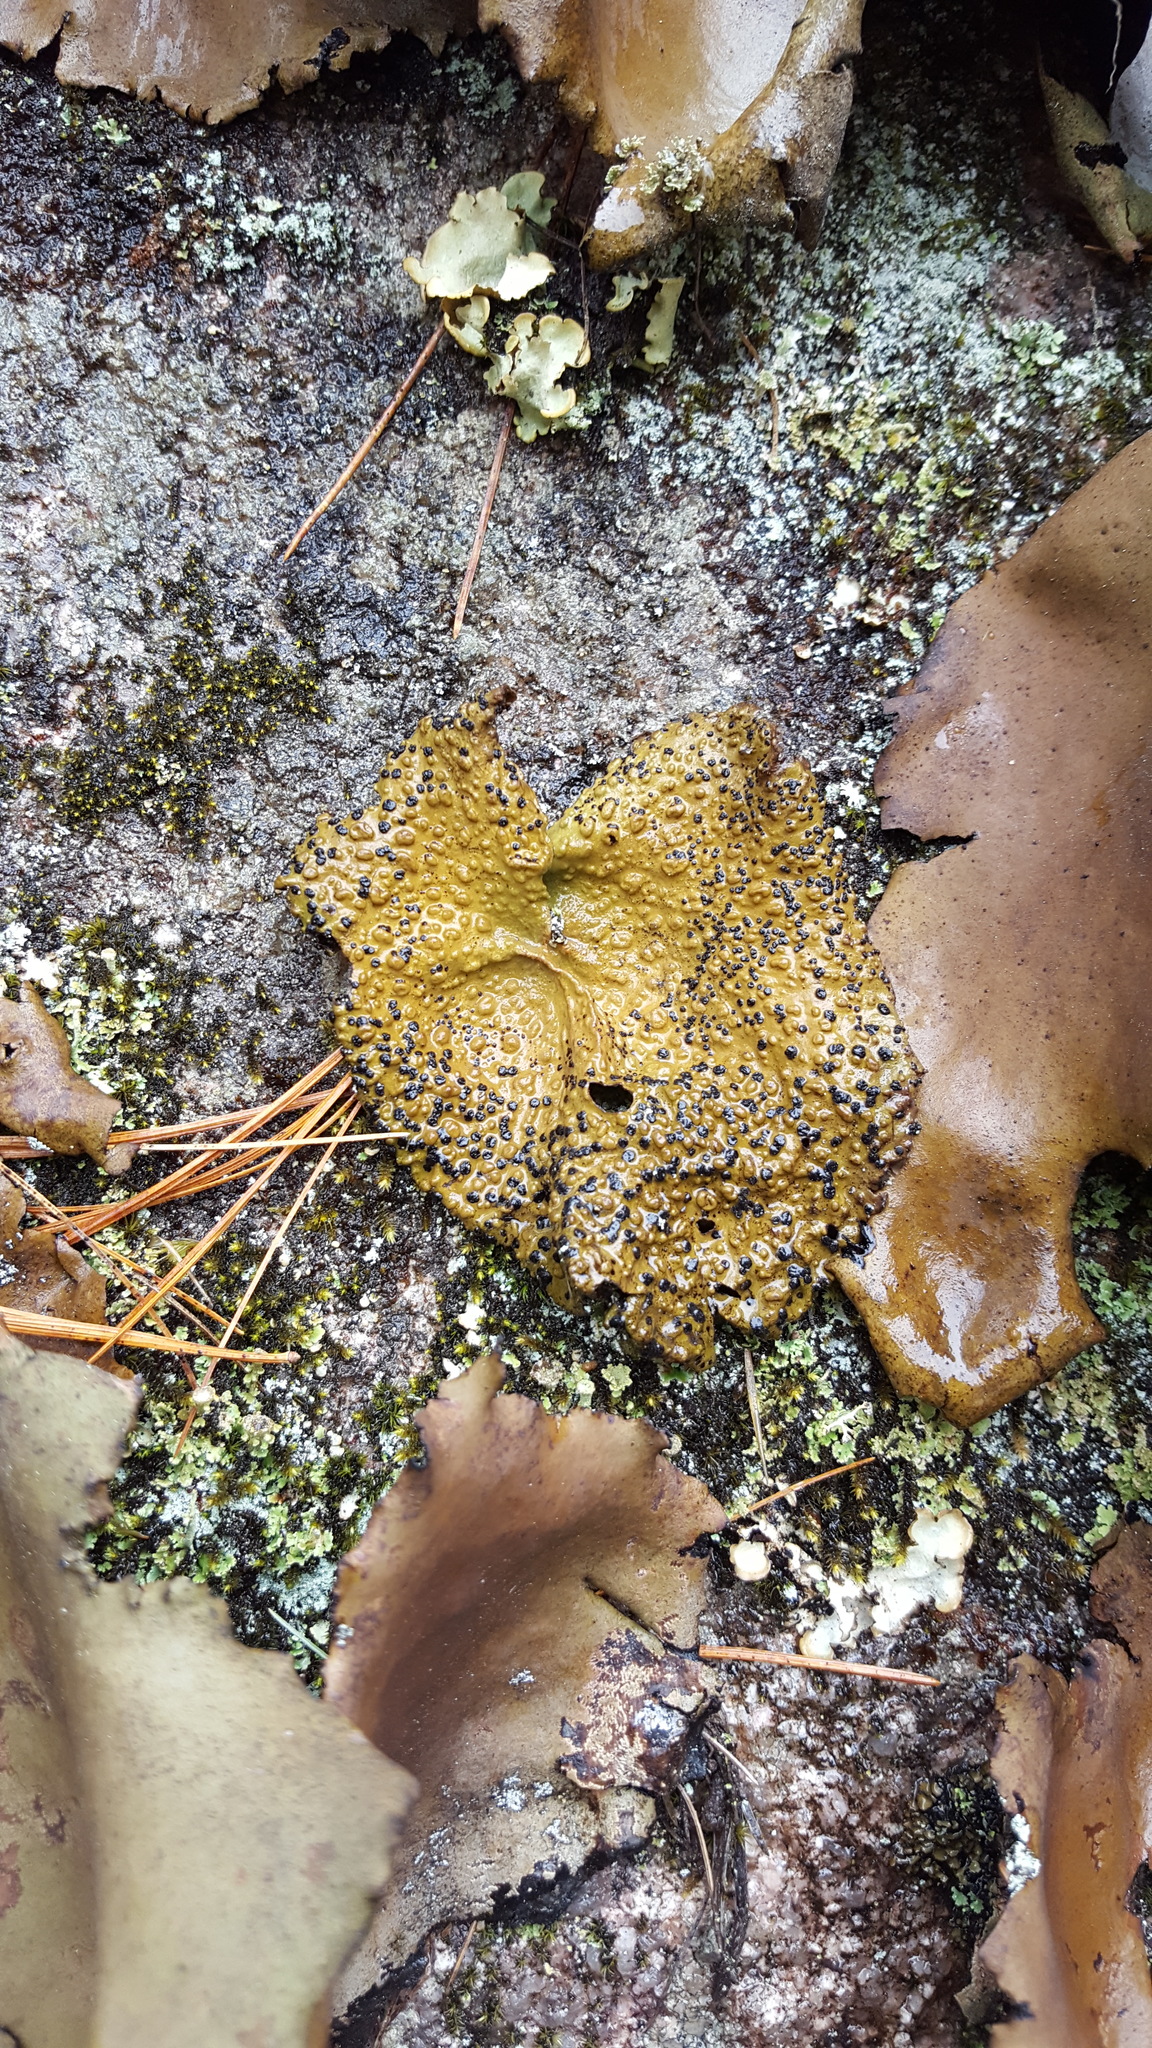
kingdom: Fungi
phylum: Ascomycota
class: Lecanoromycetes
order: Umbilicariales
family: Umbilicariaceae
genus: Lasallia
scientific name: Lasallia papulosa
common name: Common toadskin lichen
